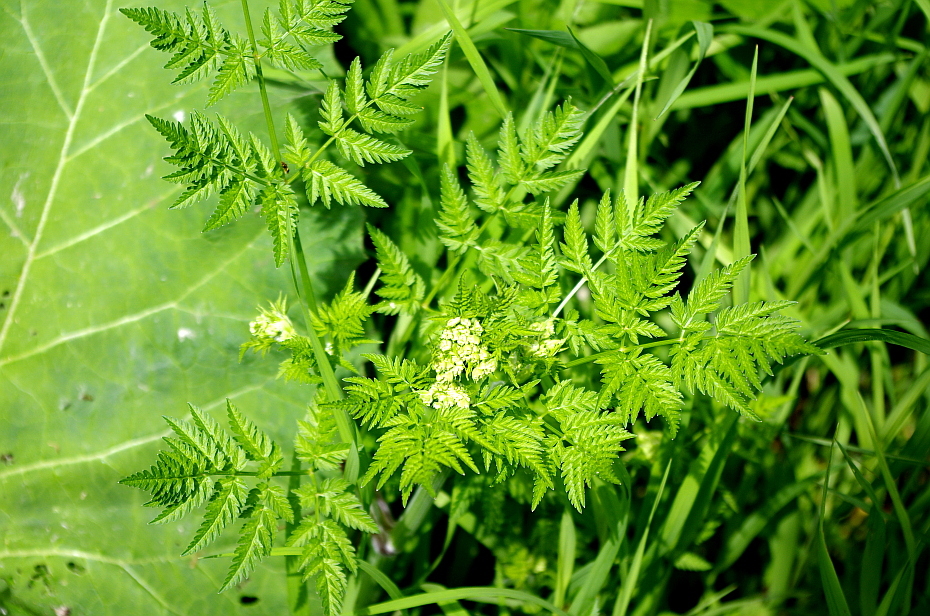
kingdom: Plantae
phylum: Tracheophyta
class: Magnoliopsida
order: Apiales
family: Apiaceae
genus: Anthriscus
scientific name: Anthriscus sylvestris
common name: Cow parsley
